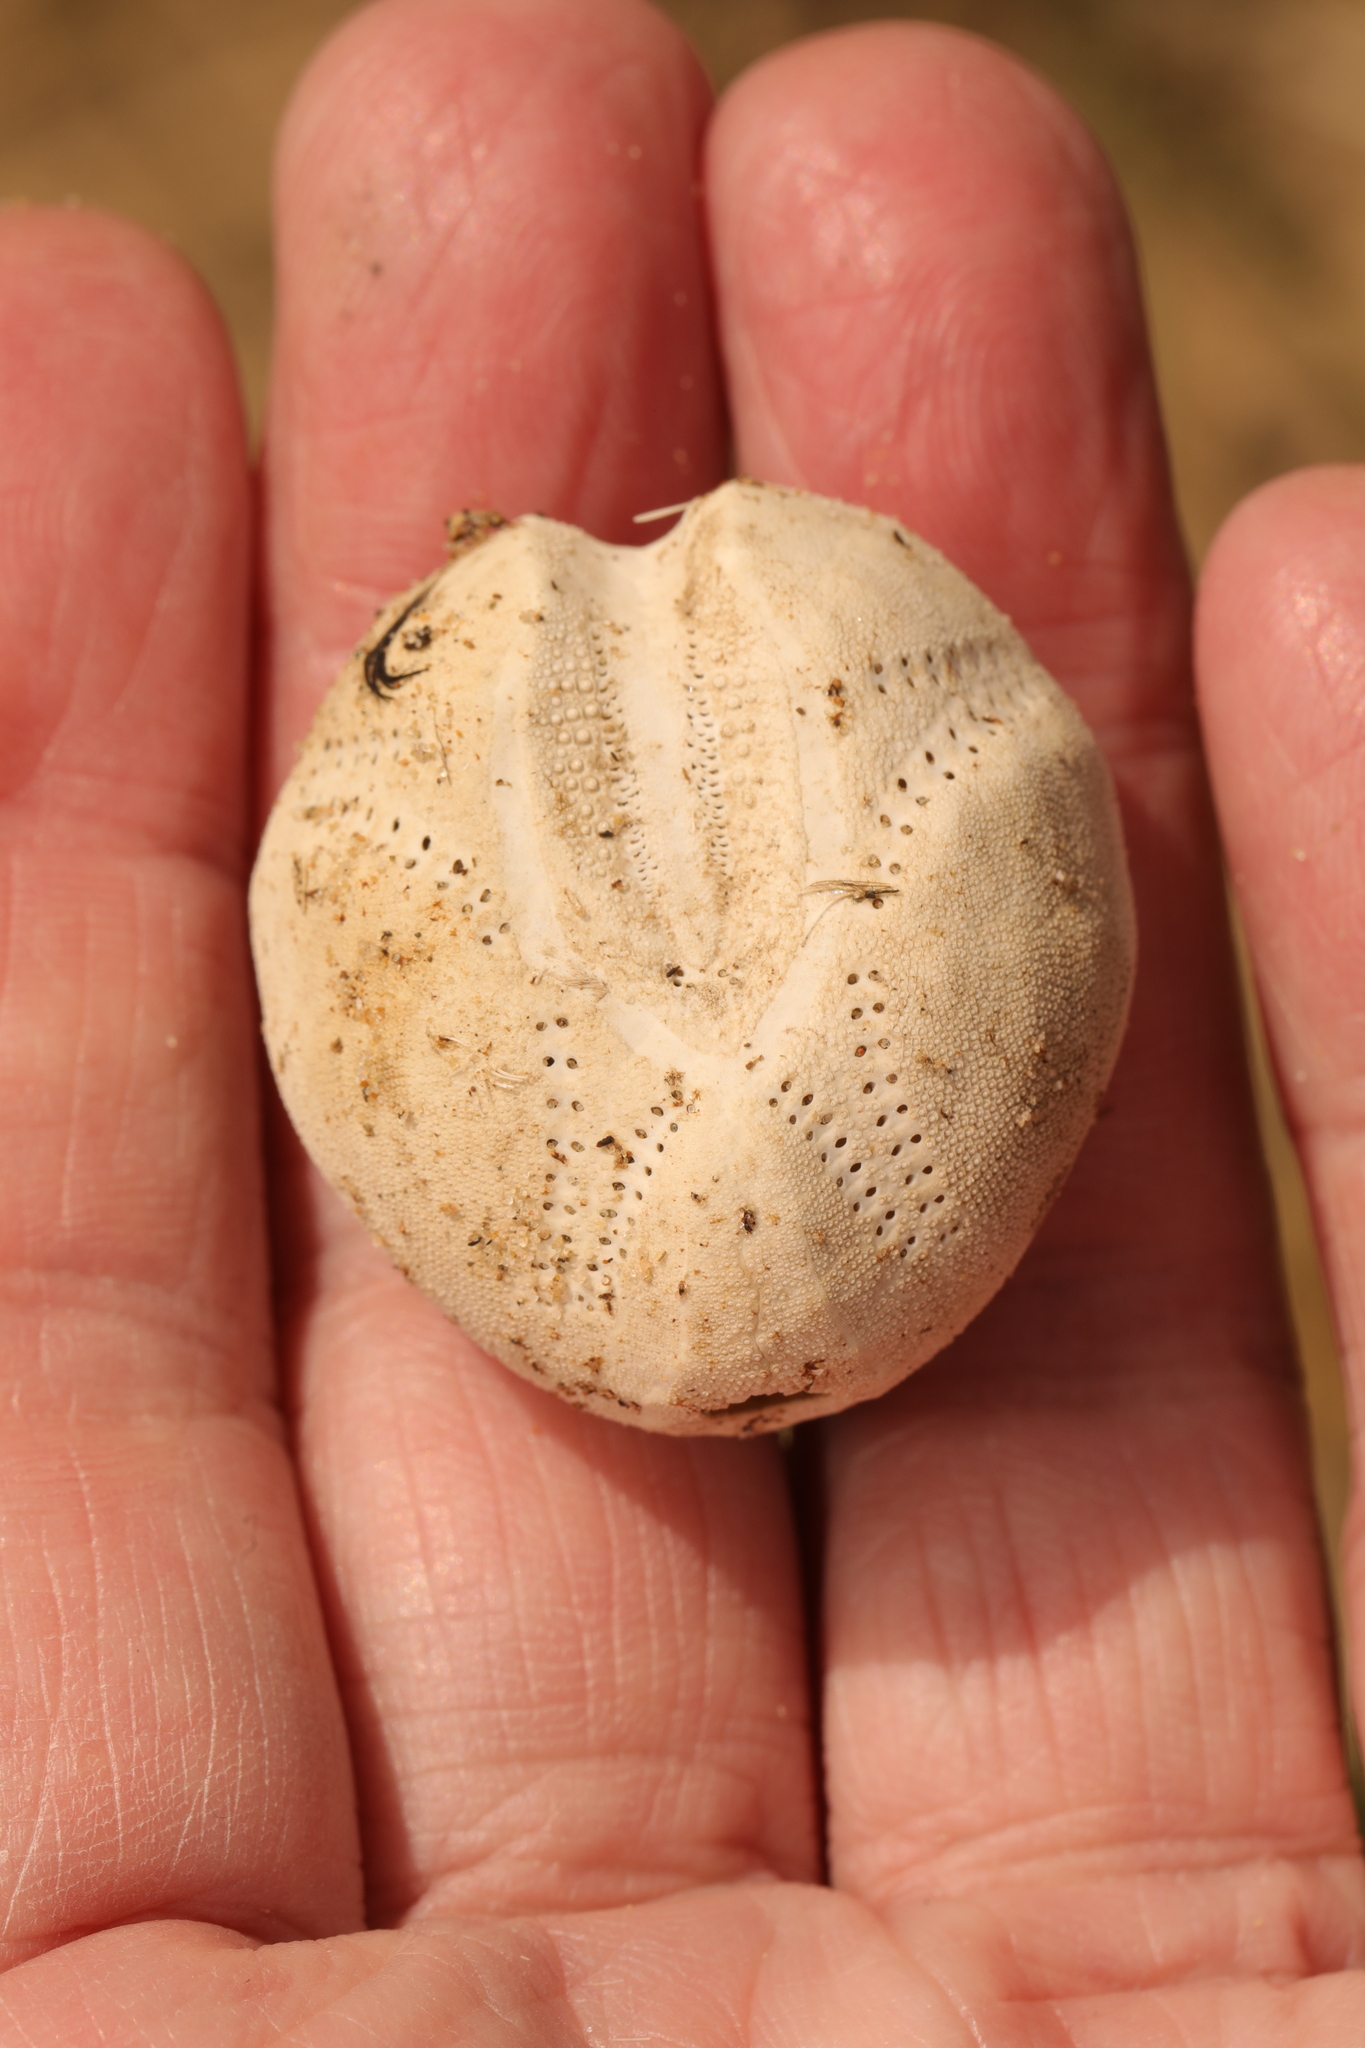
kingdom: Animalia
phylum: Echinodermata
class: Echinoidea
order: Spatangoida
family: Loveniidae
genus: Echinocardium
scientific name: Echinocardium cordatum
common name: Heart-urchin
